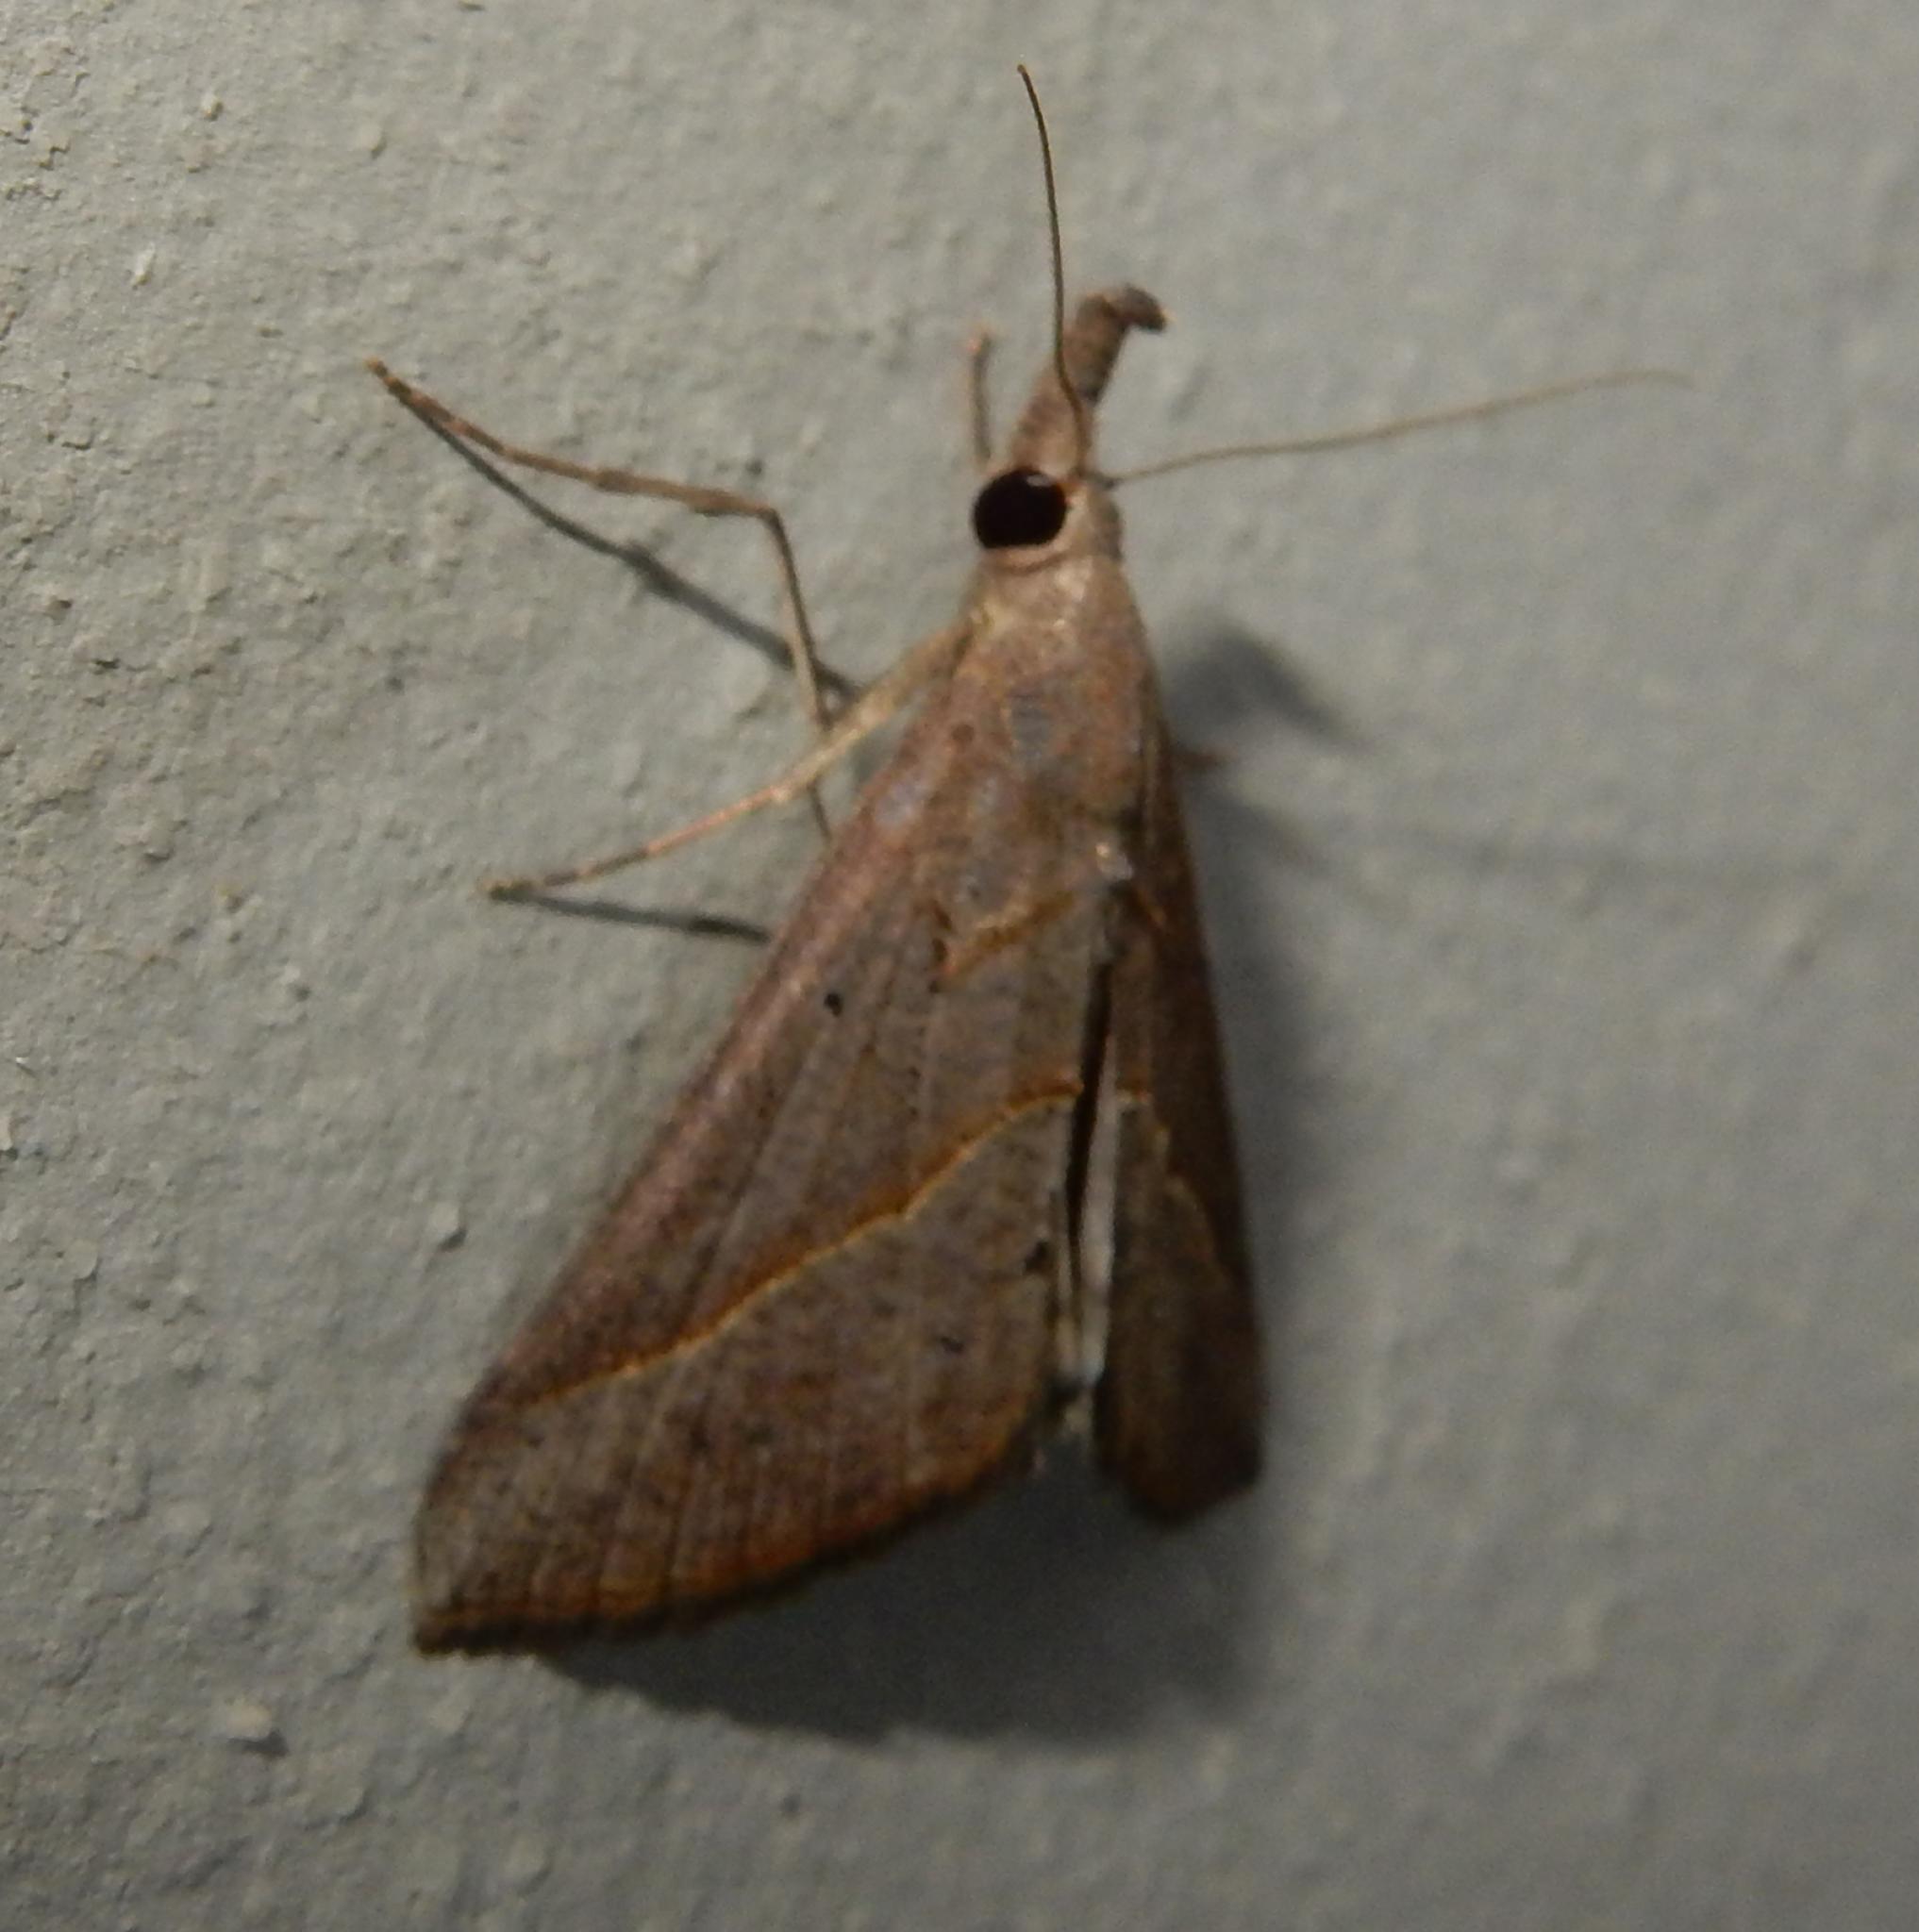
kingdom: Animalia
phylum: Arthropoda
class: Insecta
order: Lepidoptera
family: Erebidae
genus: Hypena
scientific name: Hypena lividalis
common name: Chevron snout
